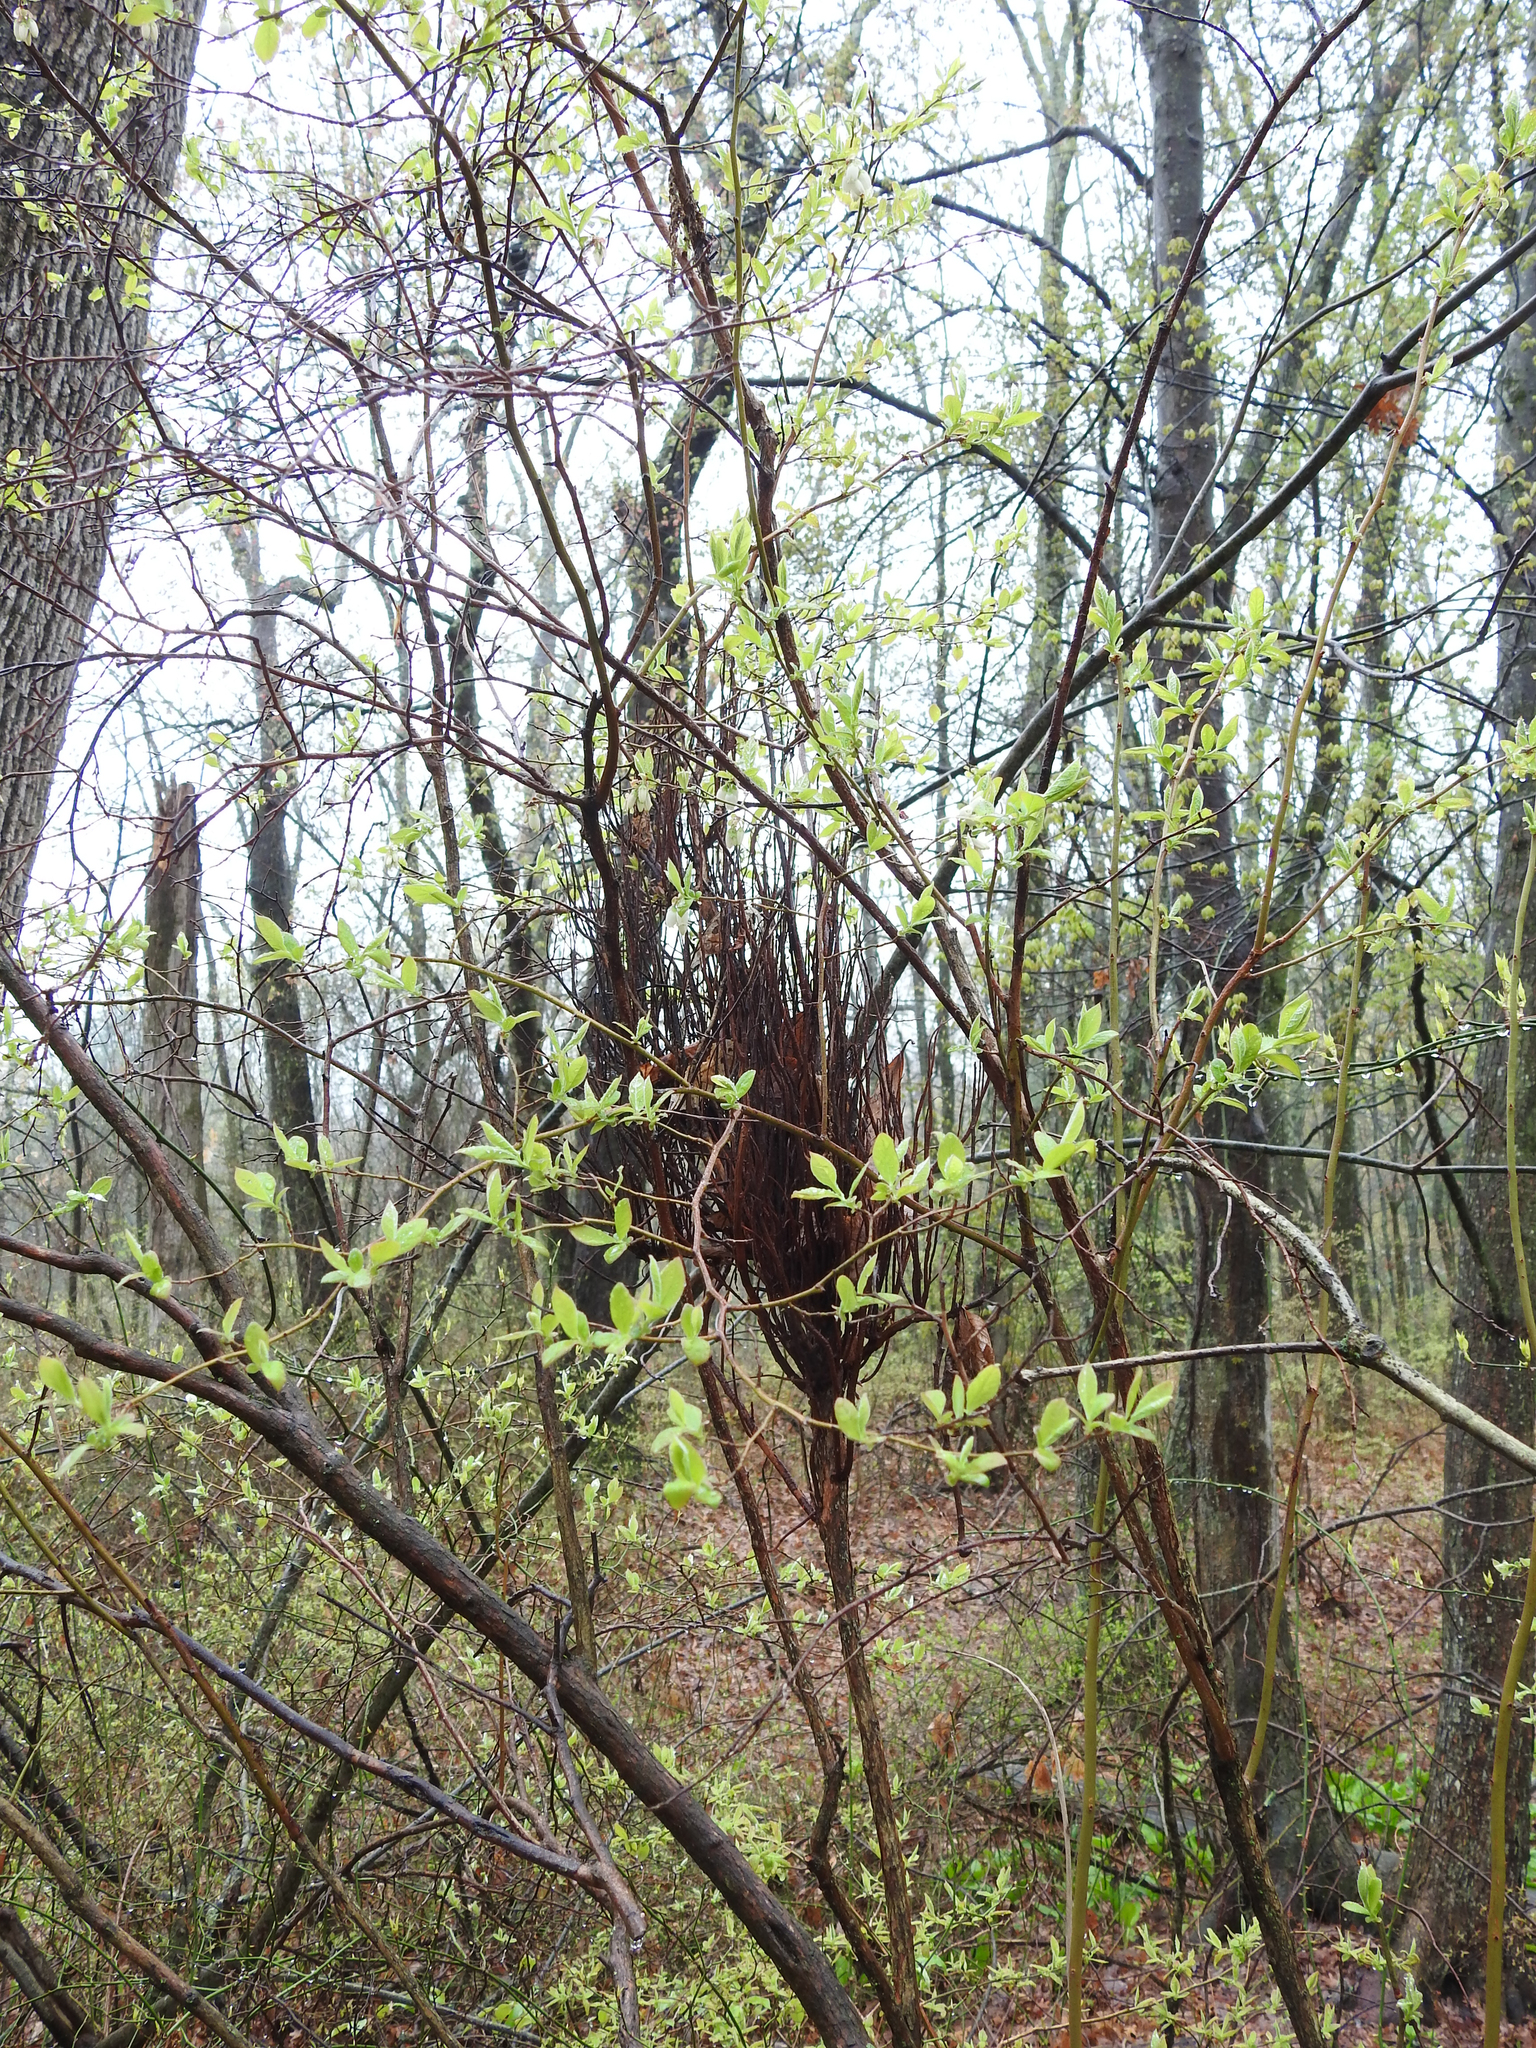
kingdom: Fungi
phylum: Basidiomycota
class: Pucciniomycetes
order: Pucciniales
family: Pucciniastraceae
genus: Calyptospora
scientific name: Calyptospora columnaris
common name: Huckleberry broom rust fungus
